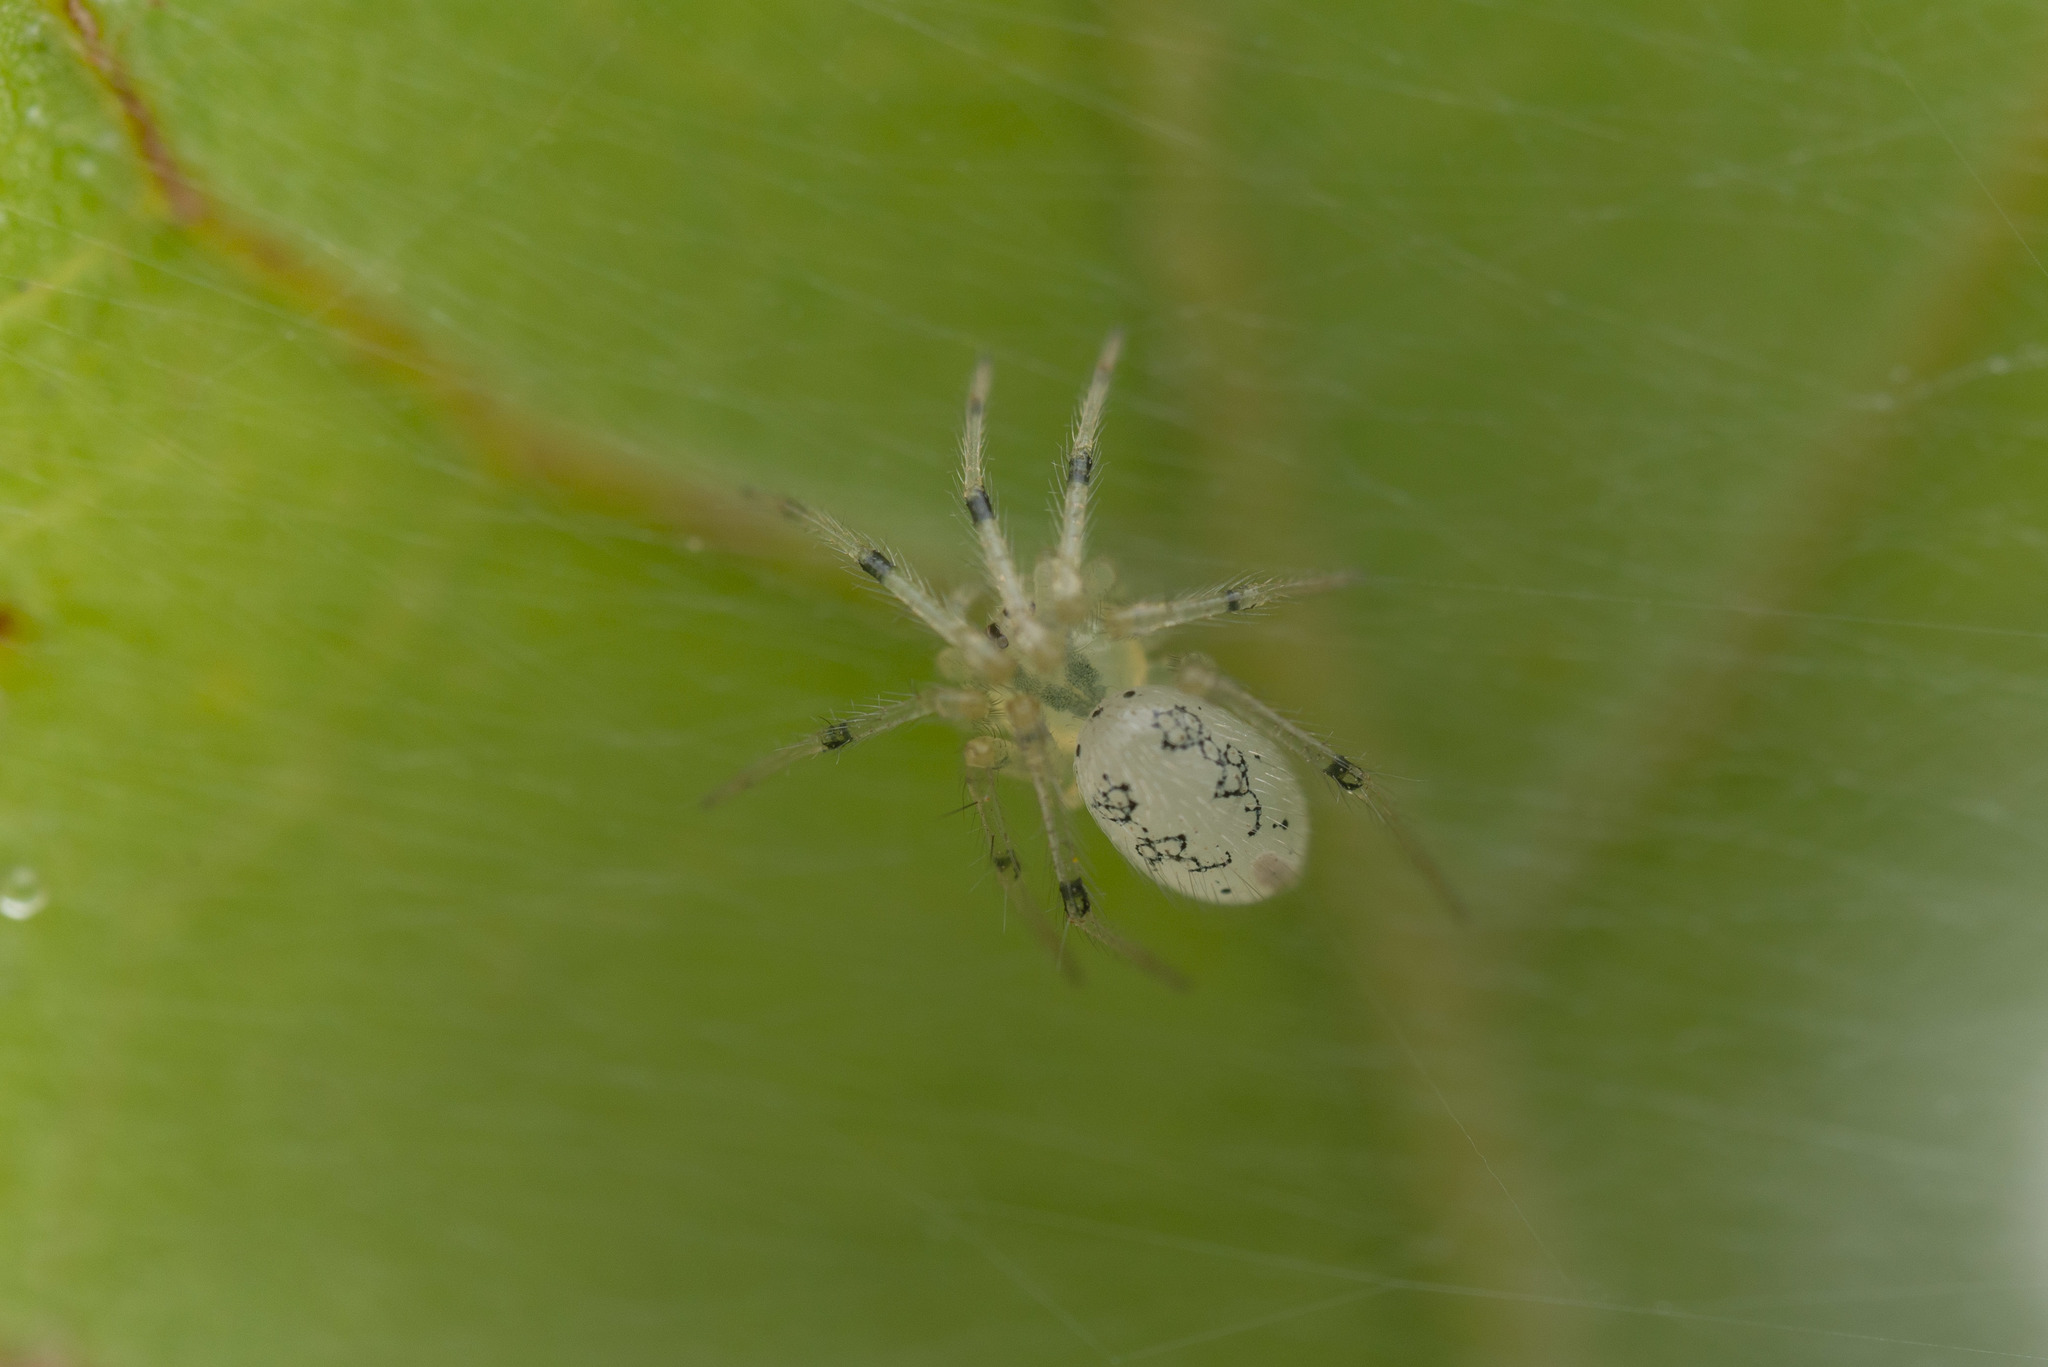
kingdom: Animalia
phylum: Arthropoda
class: Arachnida
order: Araneae
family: Theridiidae
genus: Dipoena
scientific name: Dipoena turriceps
